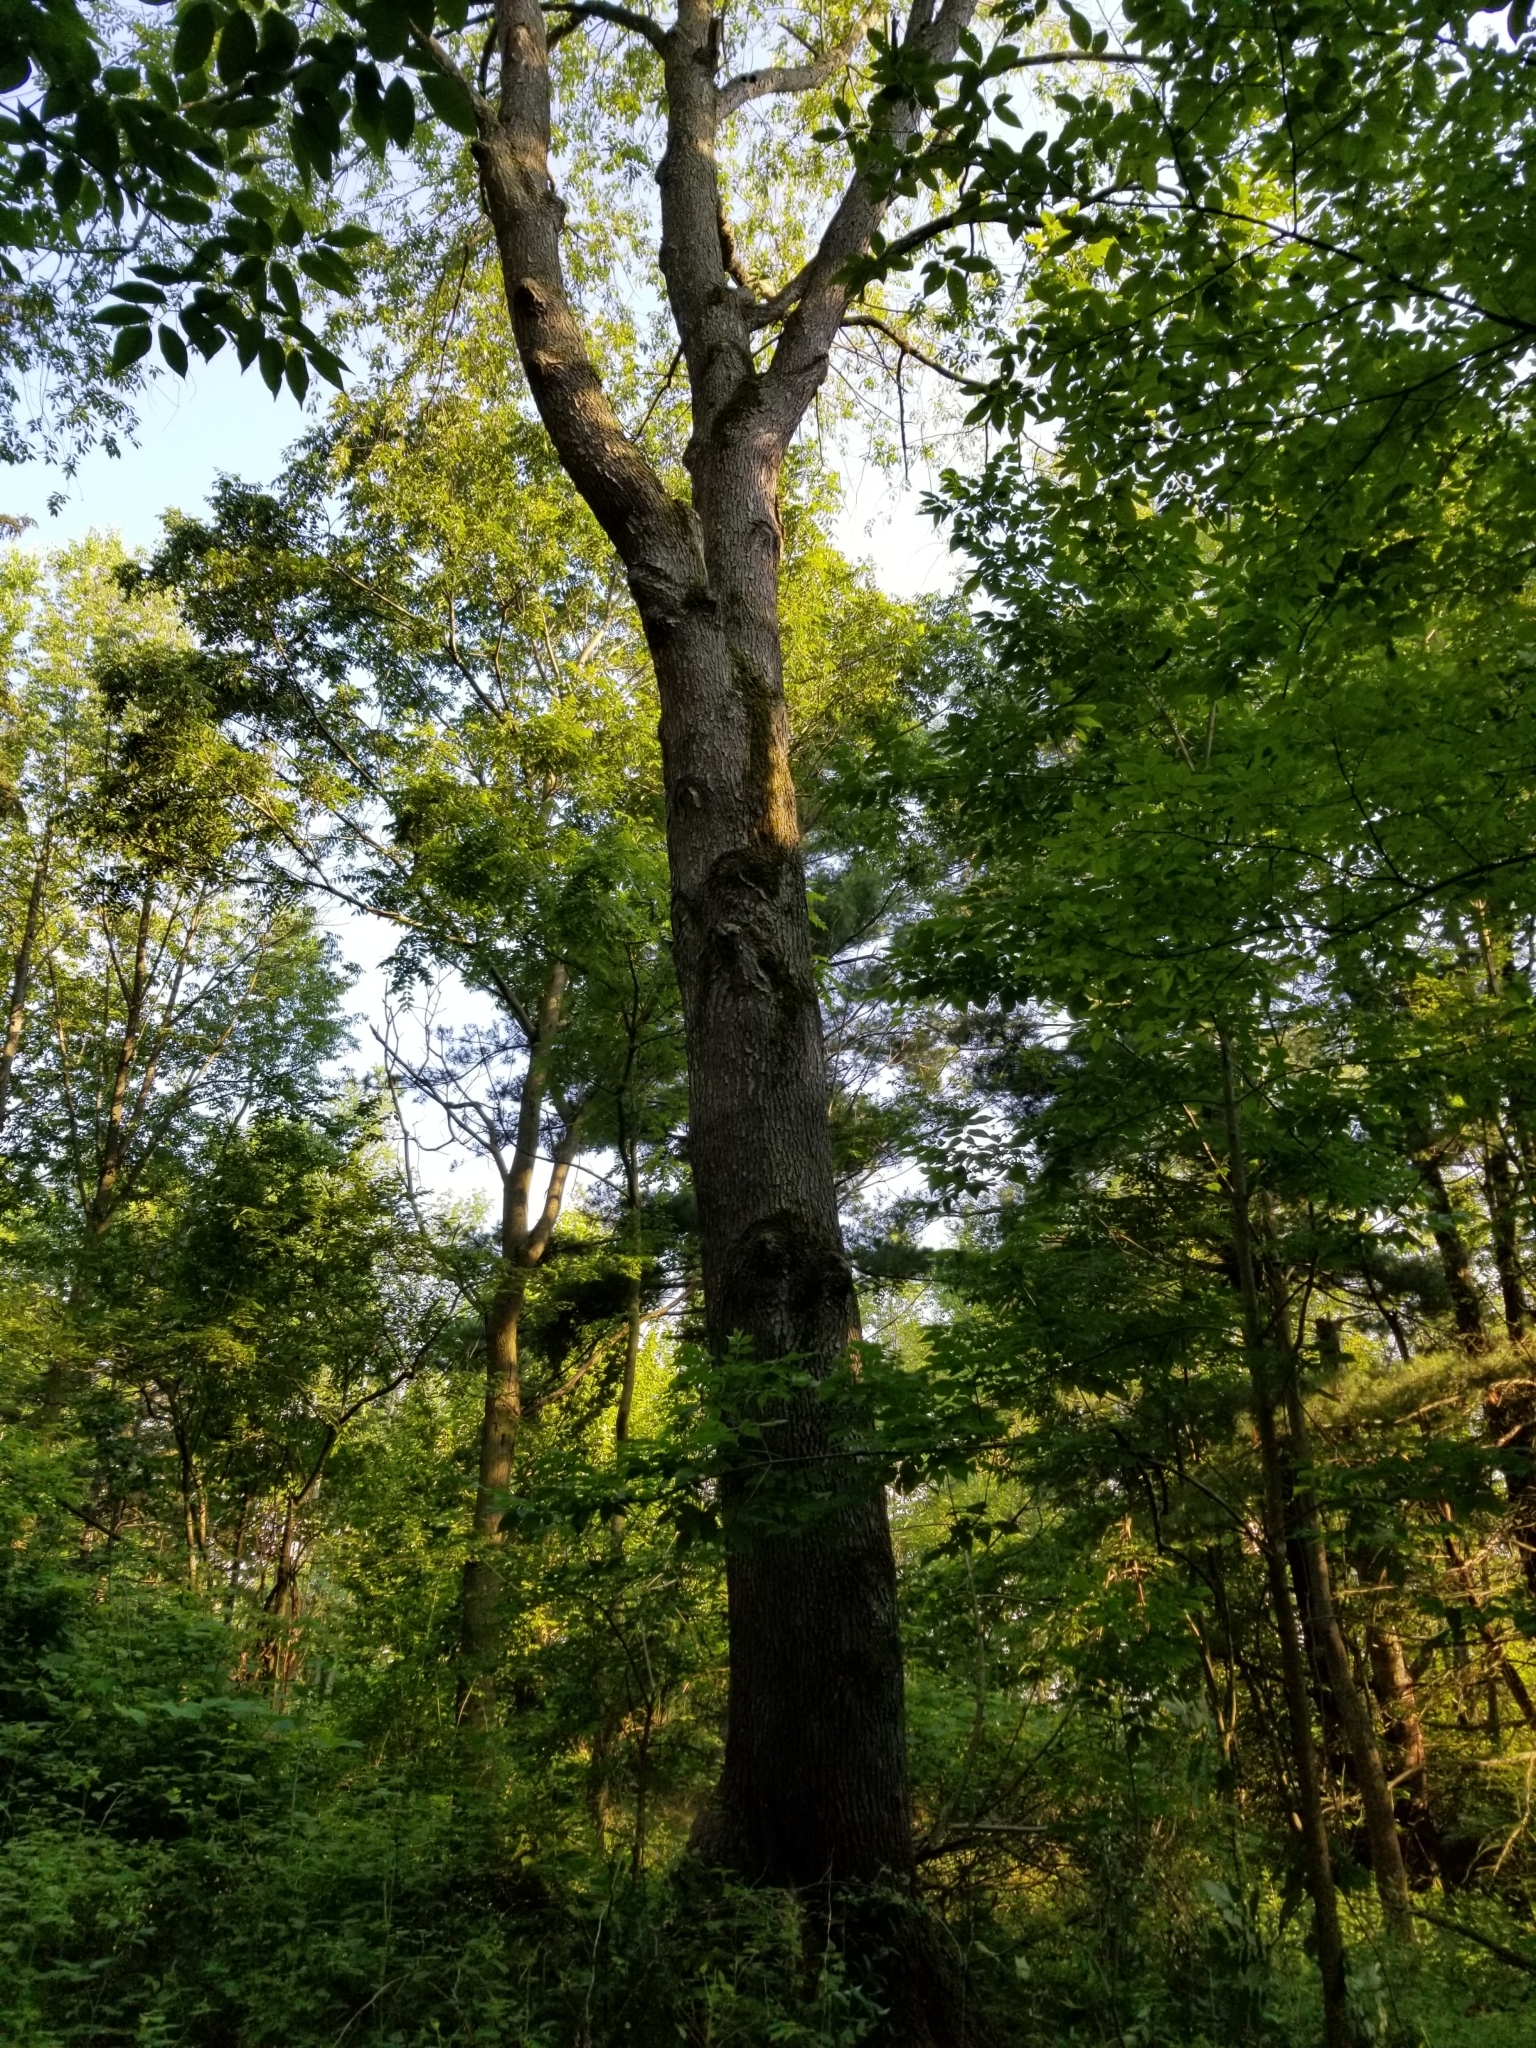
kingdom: Plantae
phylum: Tracheophyta
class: Magnoliopsida
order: Rosales
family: Rosaceae
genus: Prunus
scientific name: Prunus serotina
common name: Black cherry
